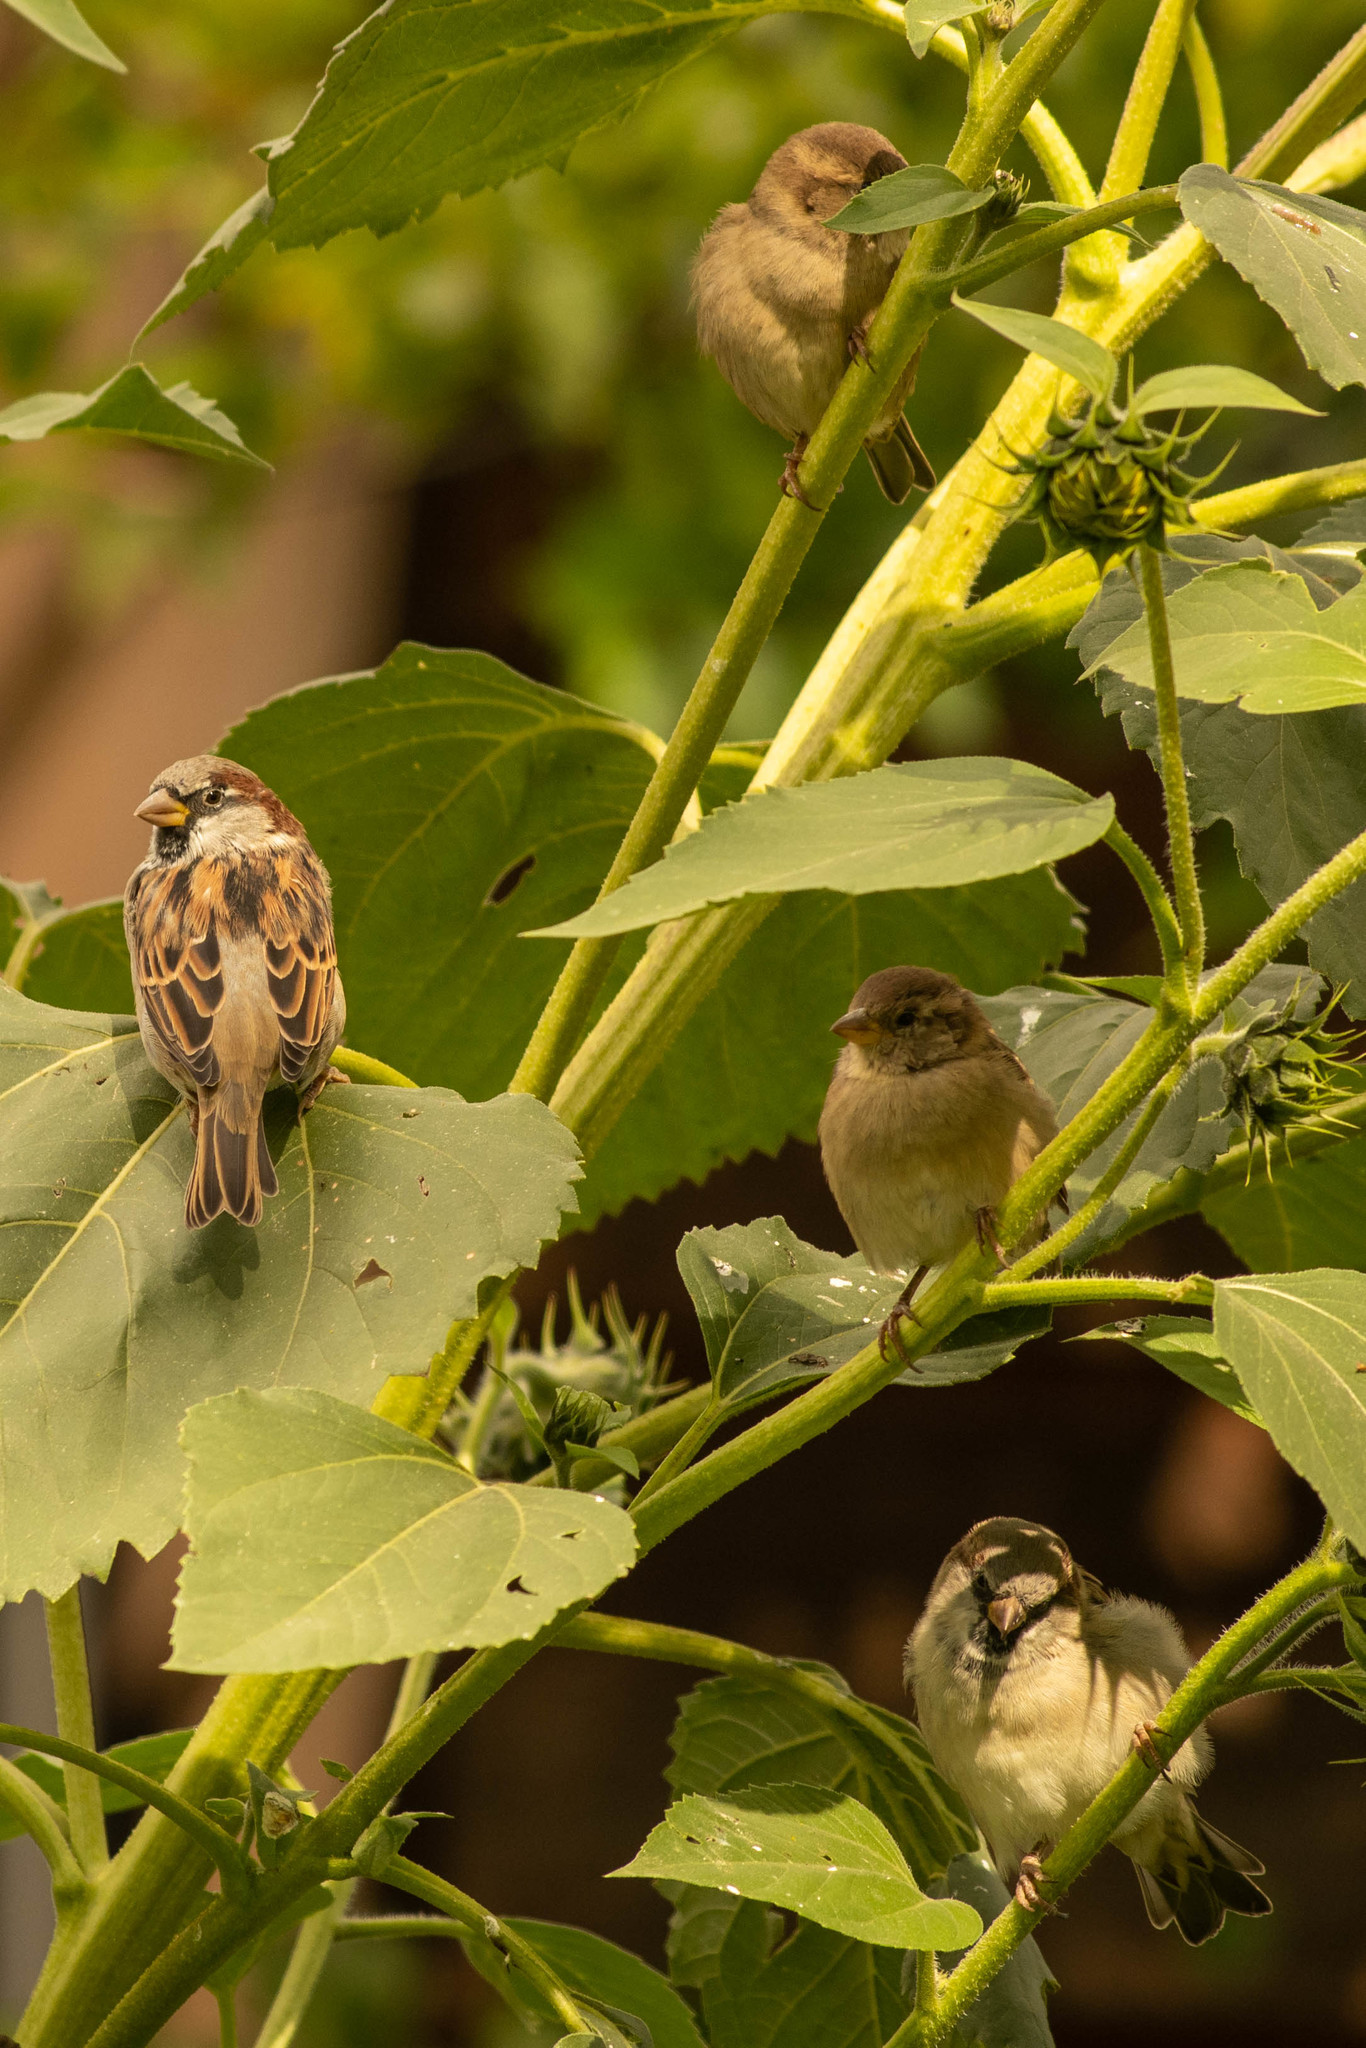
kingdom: Animalia
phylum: Chordata
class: Aves
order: Passeriformes
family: Passeridae
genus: Passer
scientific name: Passer domesticus
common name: House sparrow
